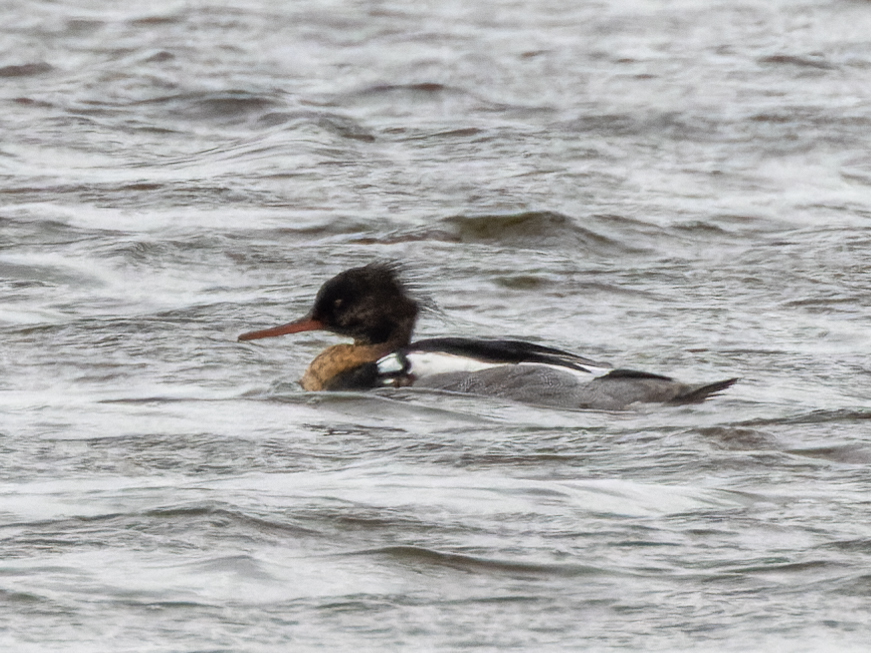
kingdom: Animalia
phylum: Chordata
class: Aves
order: Anseriformes
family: Anatidae
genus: Mergus
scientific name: Mergus serrator
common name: Red-breasted merganser
